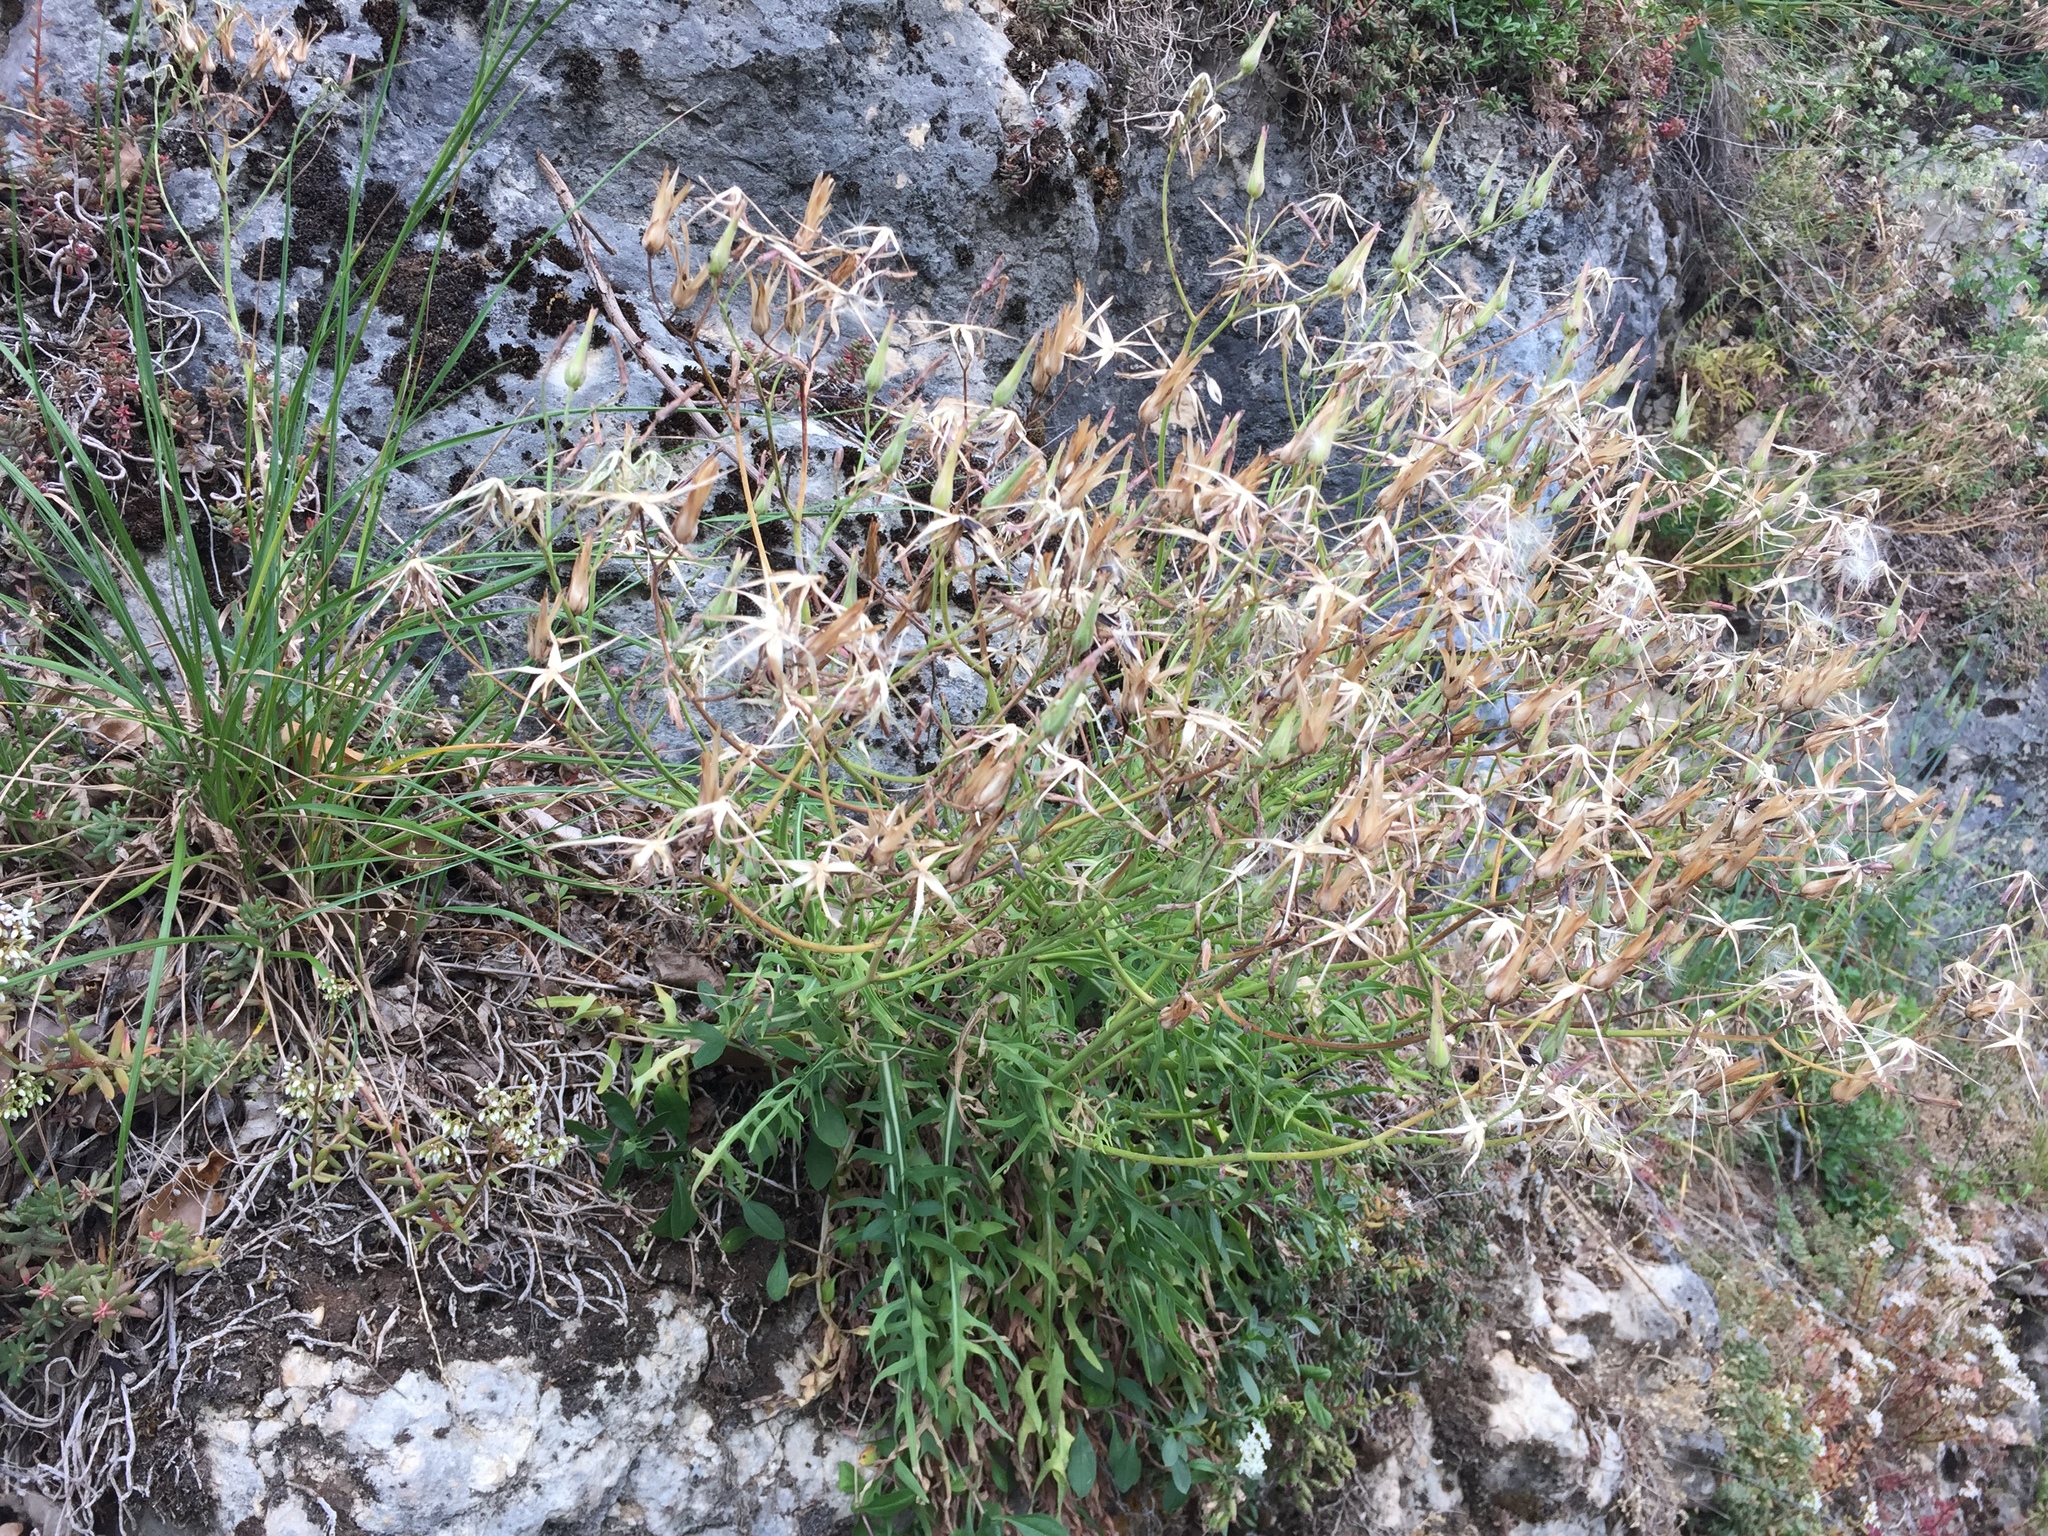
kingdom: Plantae
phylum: Tracheophyta
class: Magnoliopsida
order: Asterales
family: Asteraceae
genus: Lactuca
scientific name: Lactuca perennis
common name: Mountain lettuce
